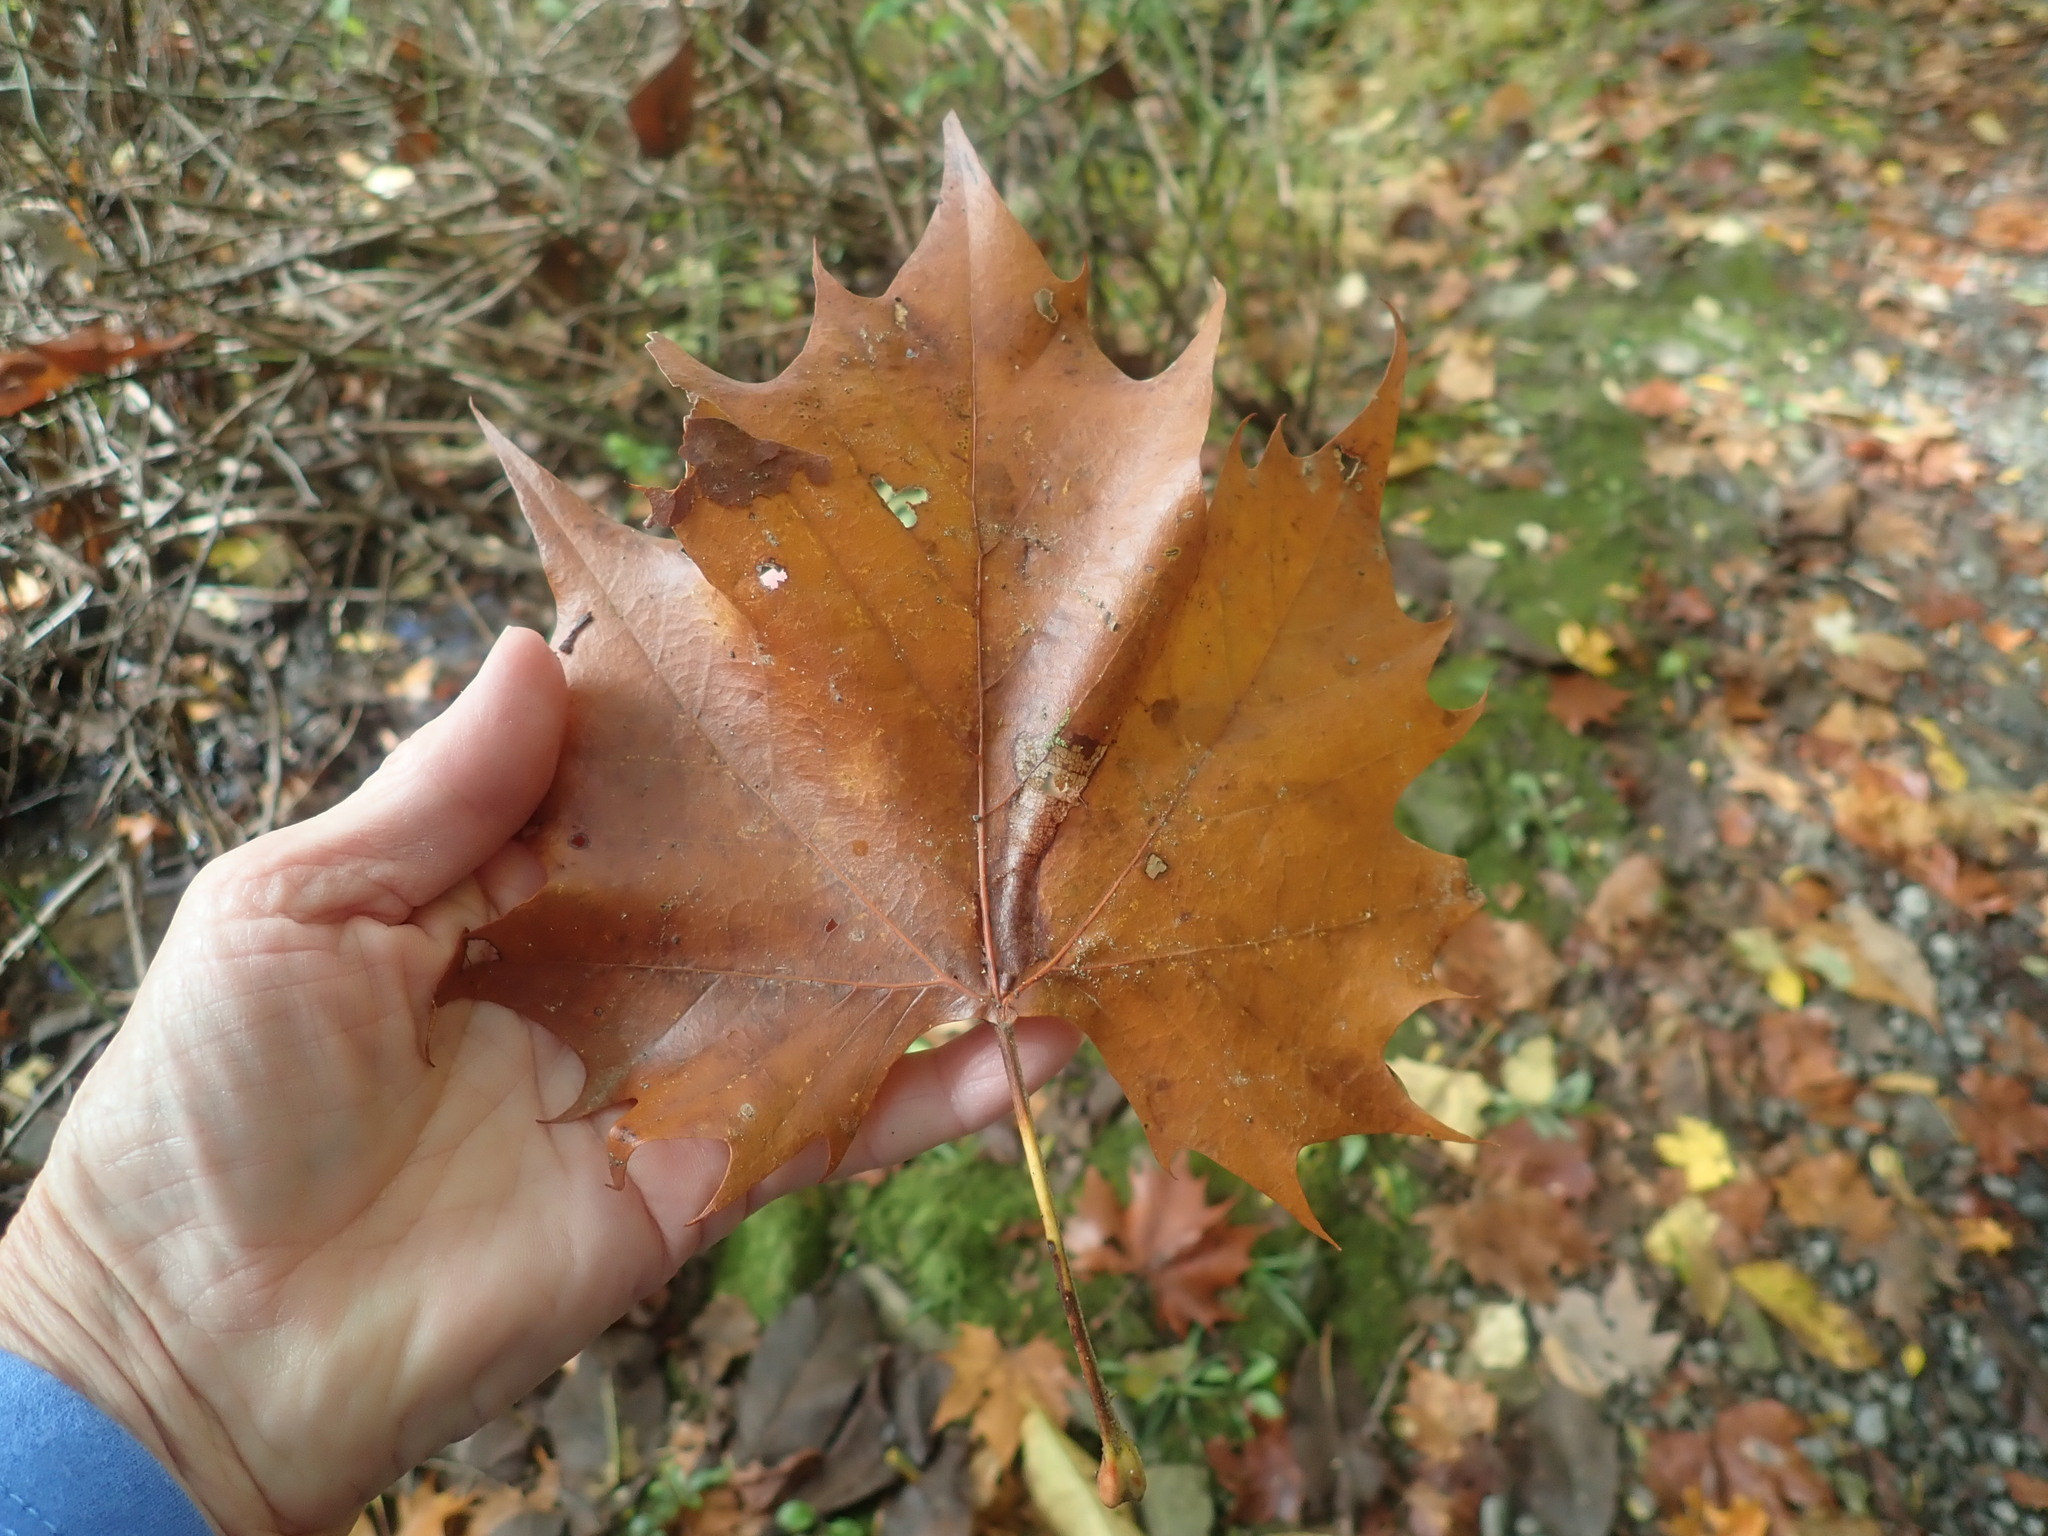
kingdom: Plantae
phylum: Tracheophyta
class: Magnoliopsida
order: Proteales
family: Platanaceae
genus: Platanus
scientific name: Platanus occidentalis
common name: American sycamore
